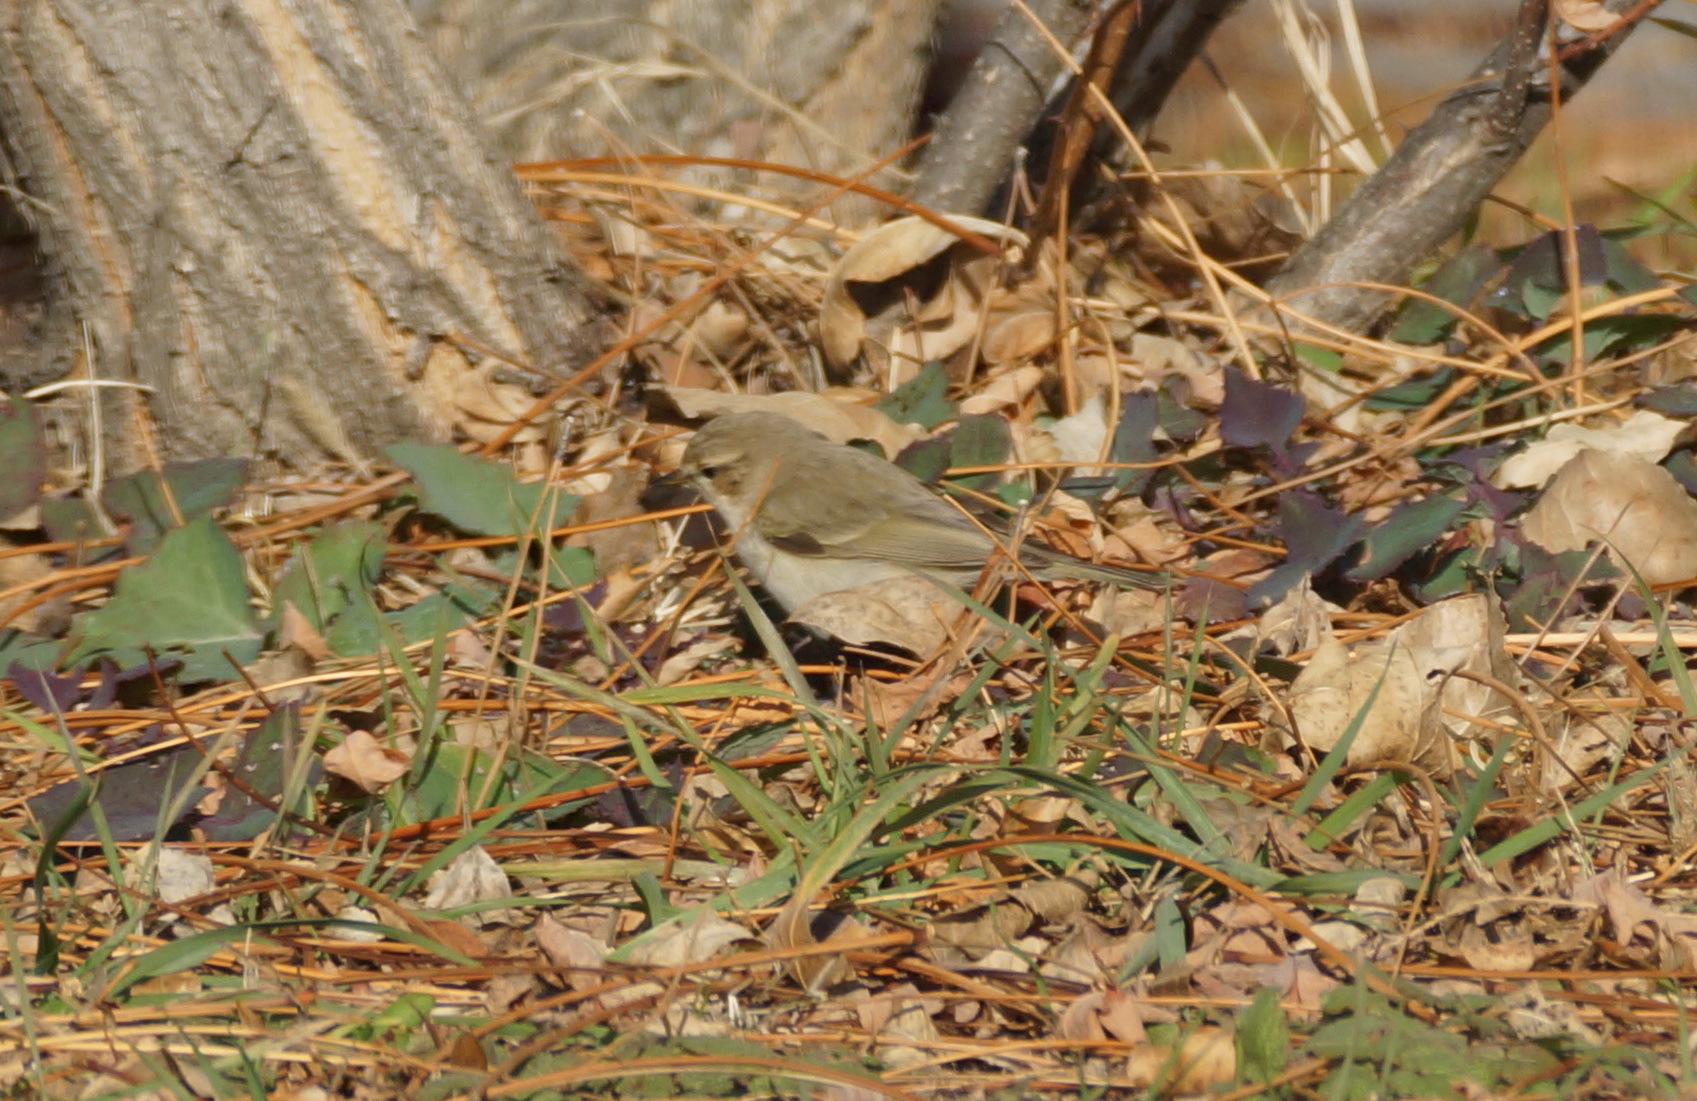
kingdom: Animalia
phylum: Chordata
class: Aves
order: Passeriformes
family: Phylloscopidae
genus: Phylloscopus
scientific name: Phylloscopus collybita
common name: Common chiffchaff
